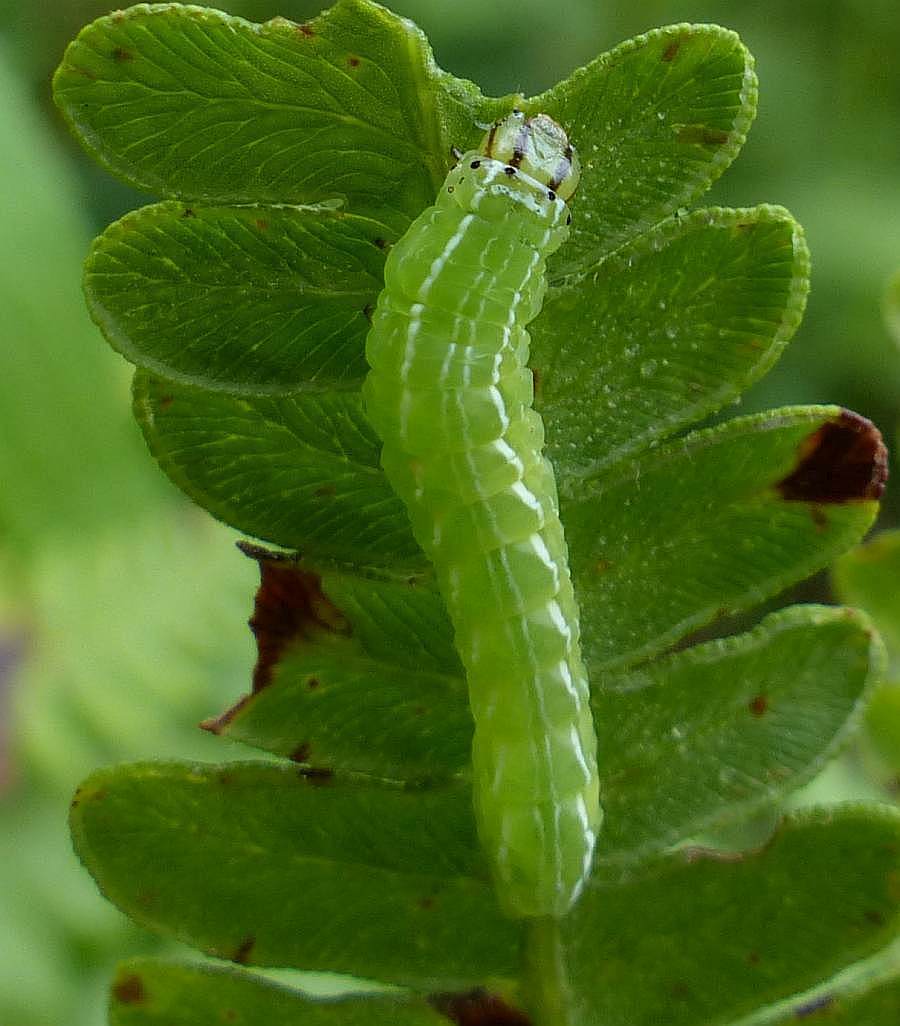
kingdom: Animalia
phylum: Arthropoda
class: Insecta
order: Lepidoptera
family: Noctuidae
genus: Callopistria
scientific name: Callopistria cordata
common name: Silver-spotted fern moth
